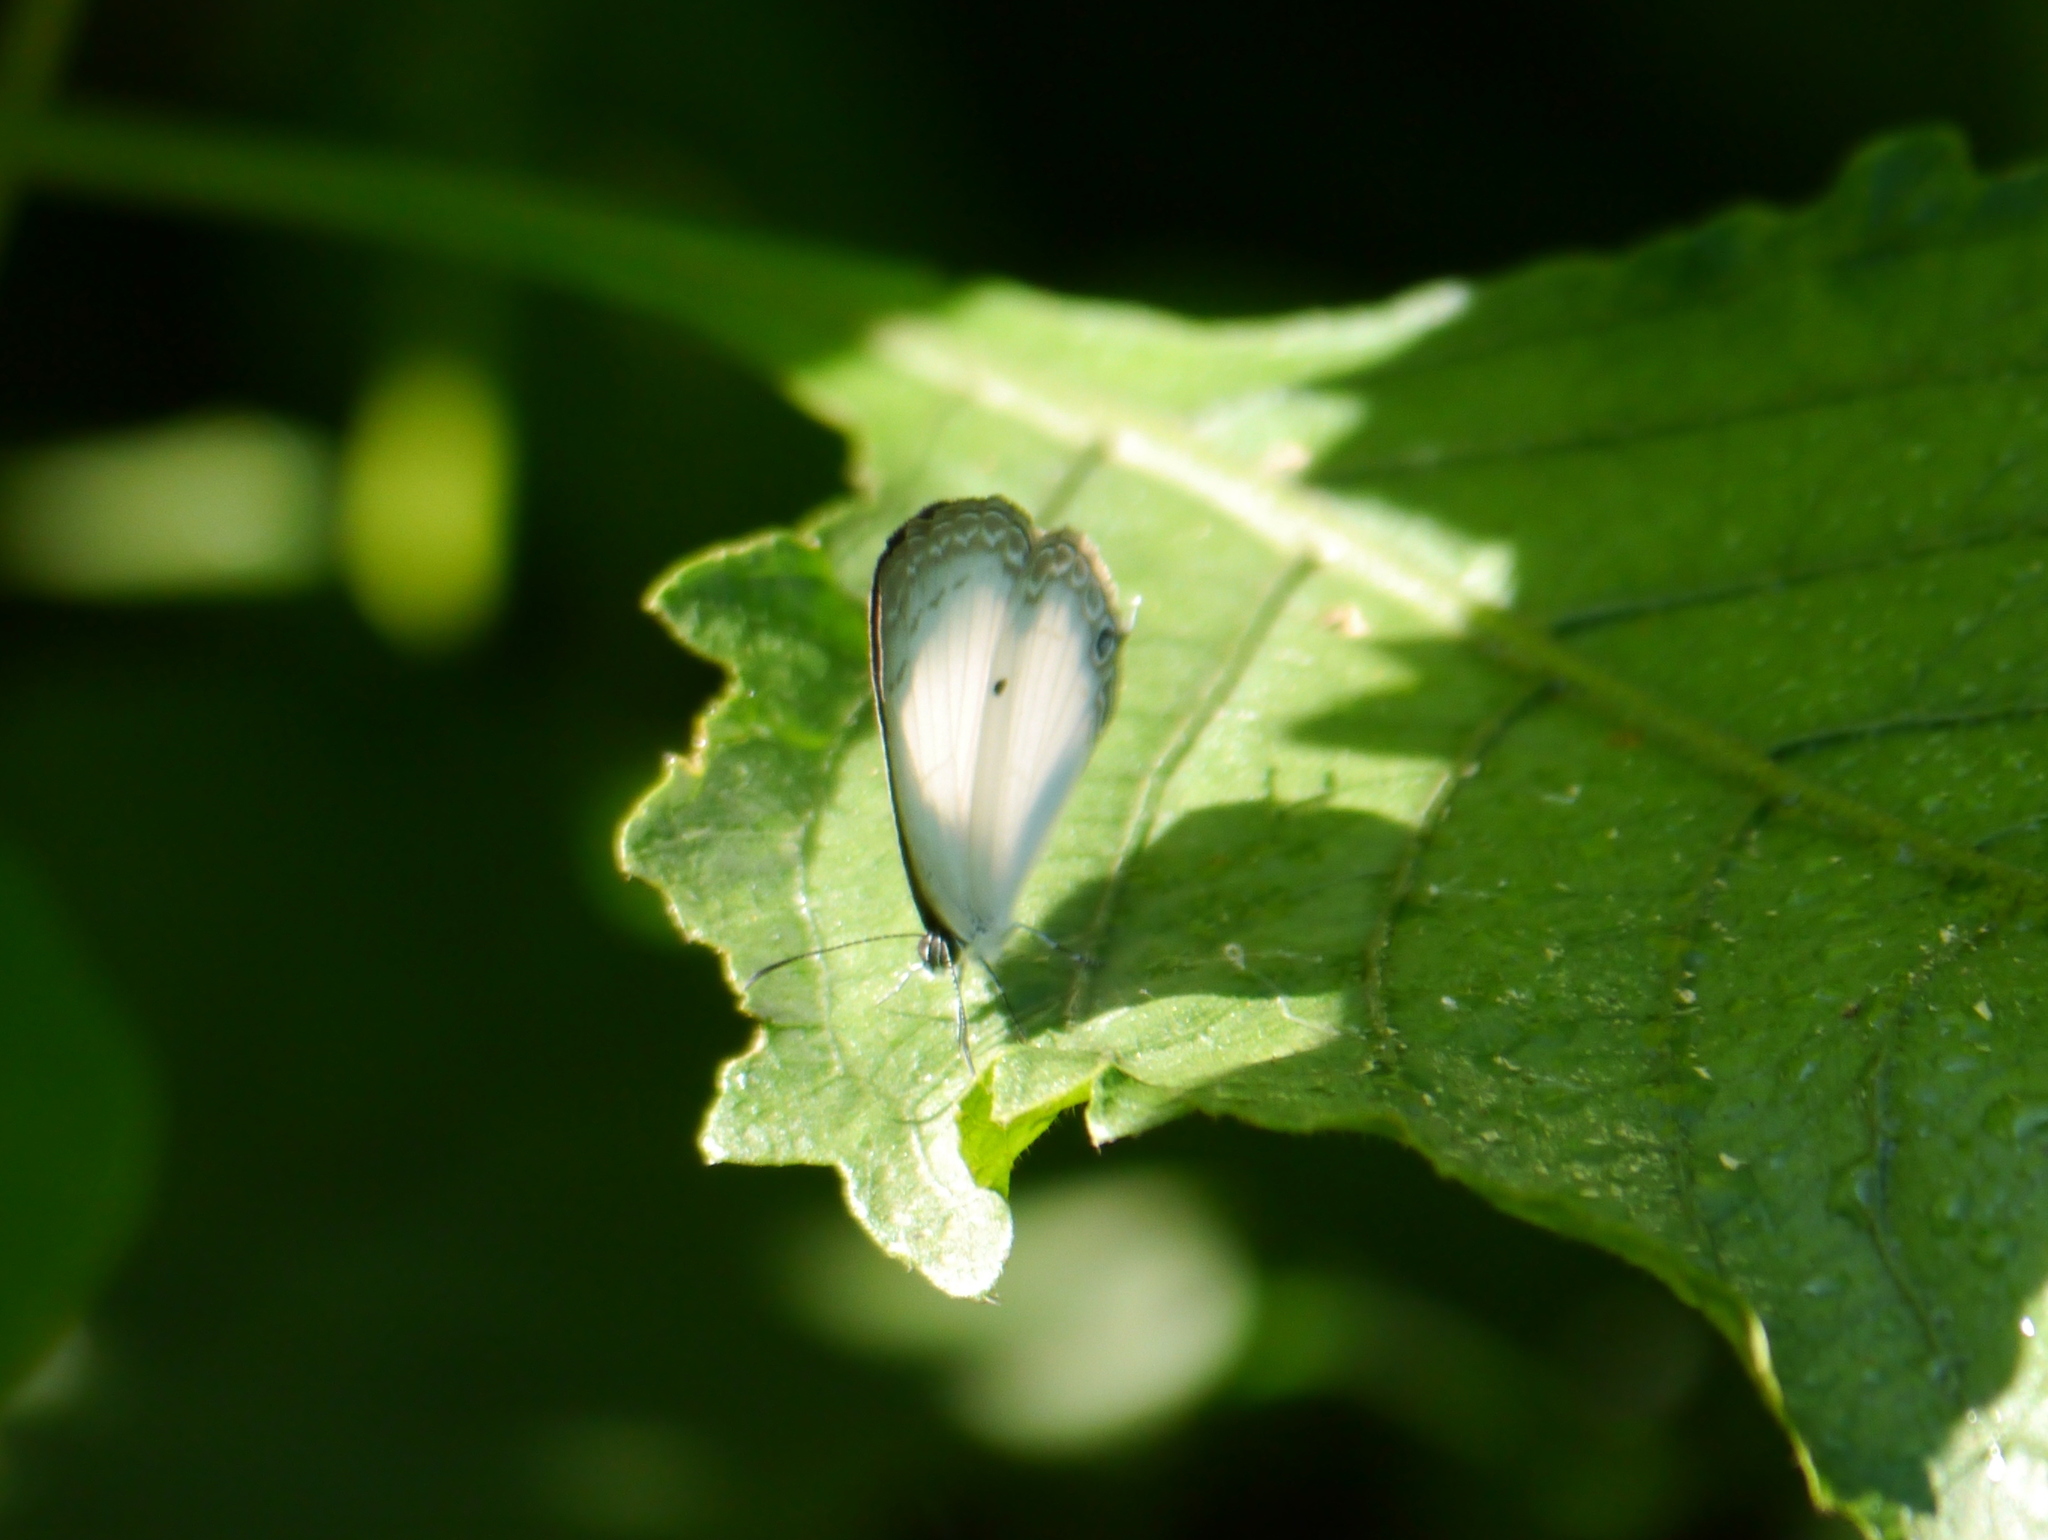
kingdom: Animalia
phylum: Arthropoda
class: Insecta
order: Lepidoptera
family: Lycaenidae
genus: Oboronia
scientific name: Oboronia punctatus
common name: Common ginger white
